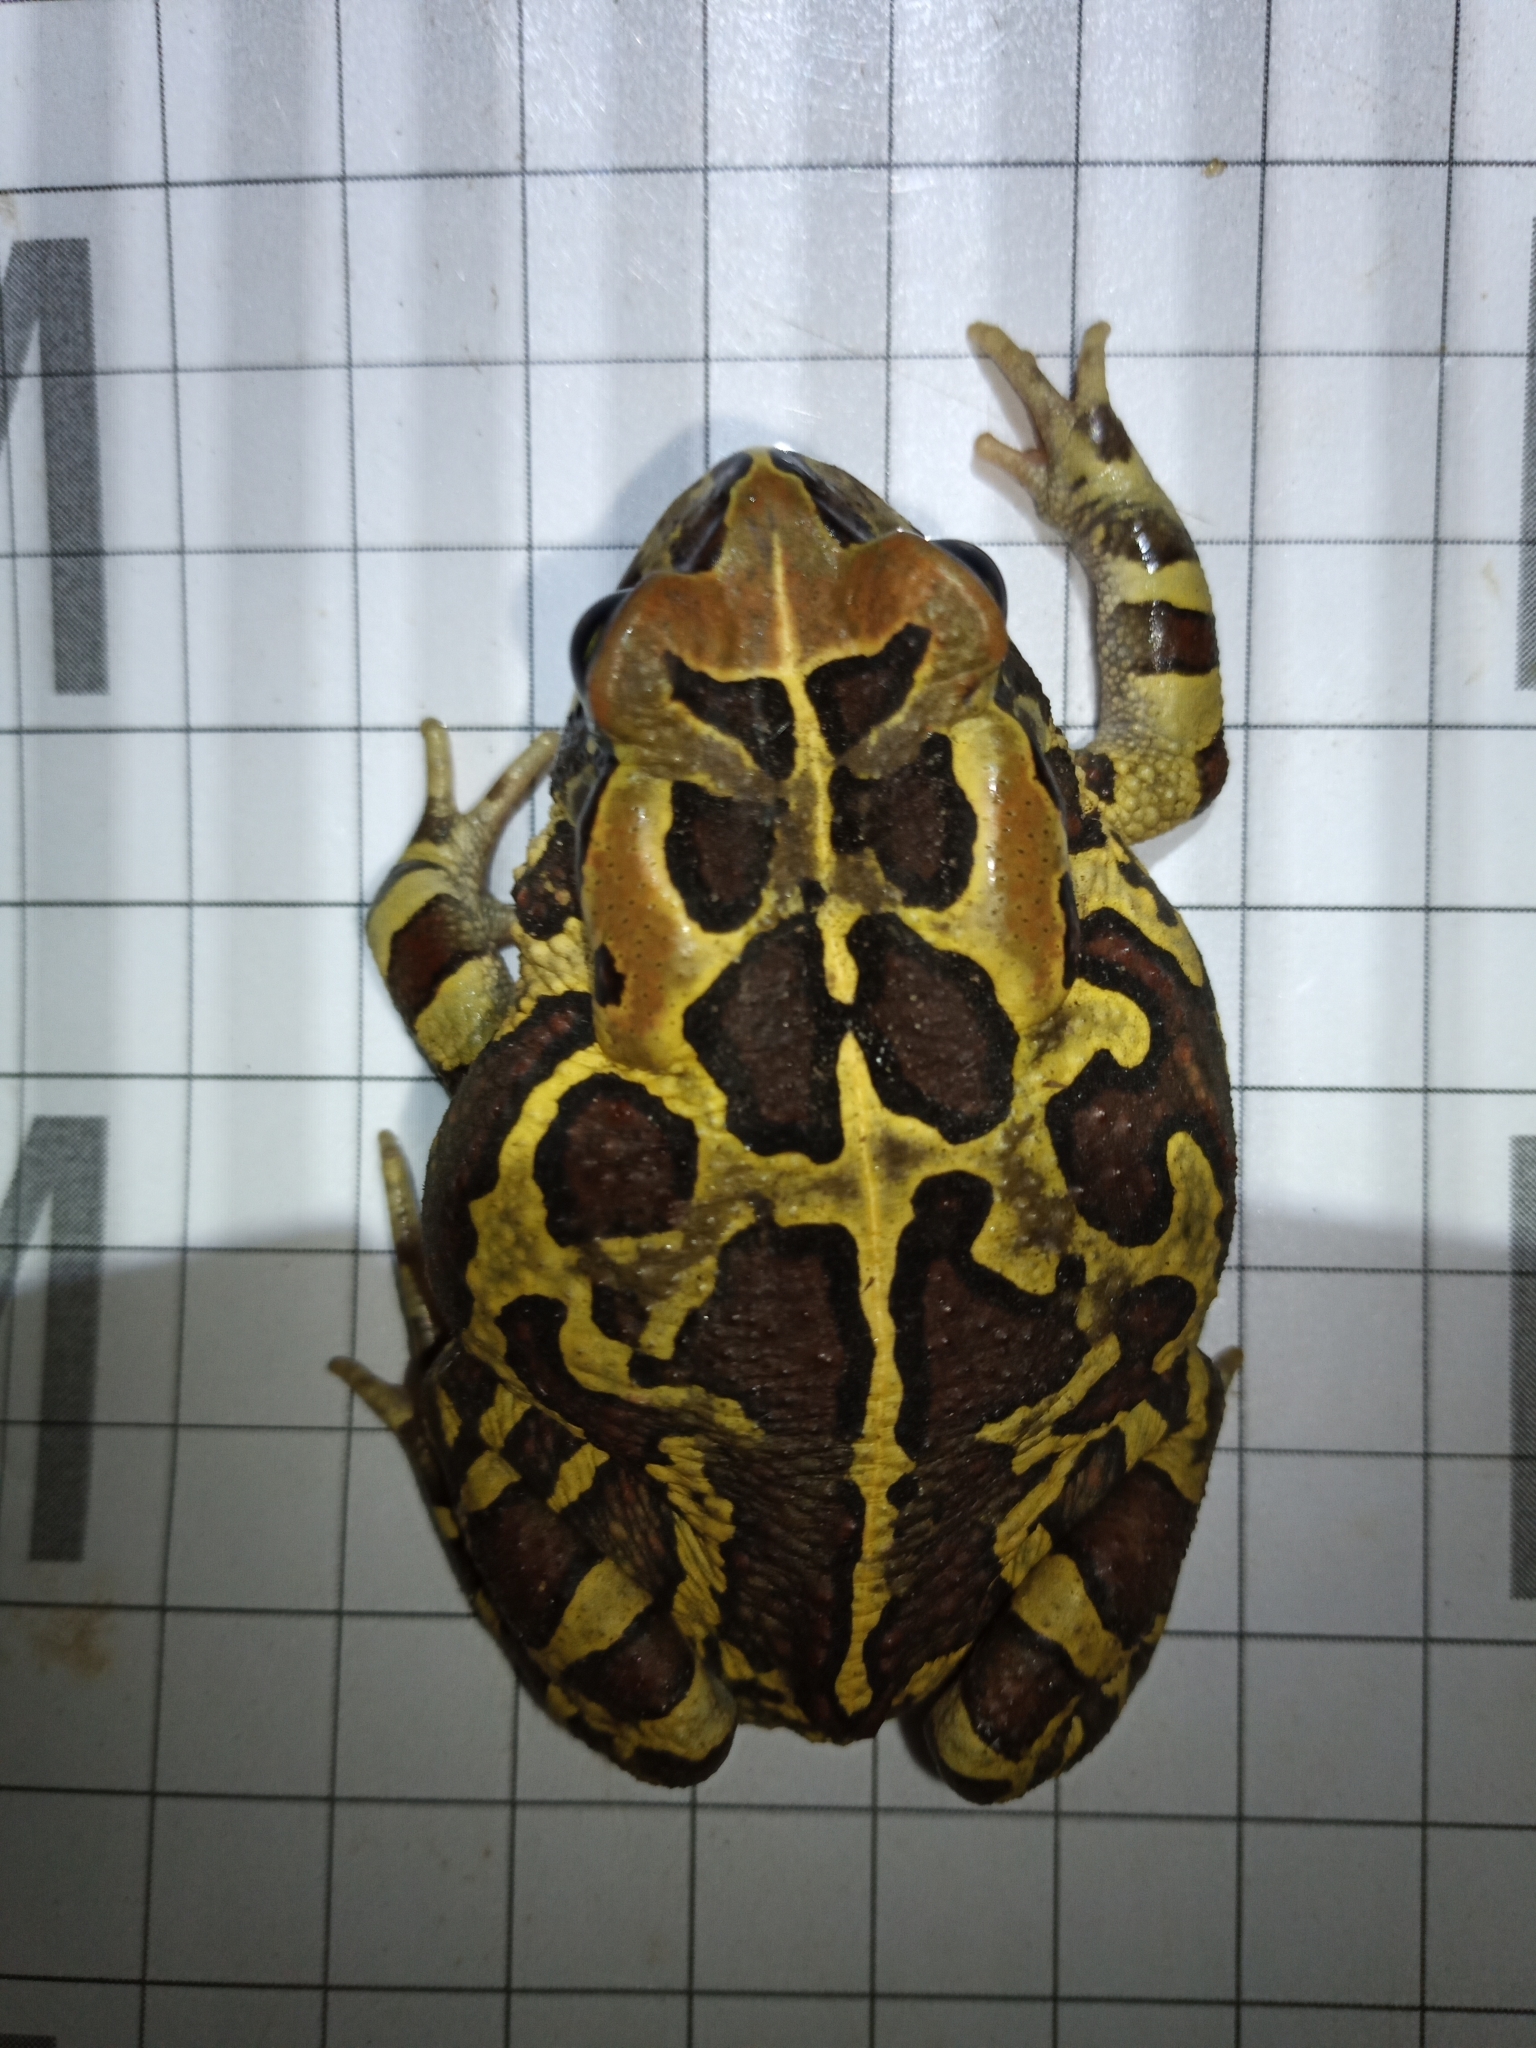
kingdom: Animalia
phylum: Chordata
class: Amphibia
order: Anura
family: Bufonidae
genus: Sclerophrys
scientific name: Sclerophrys pantherina
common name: Panther toad
